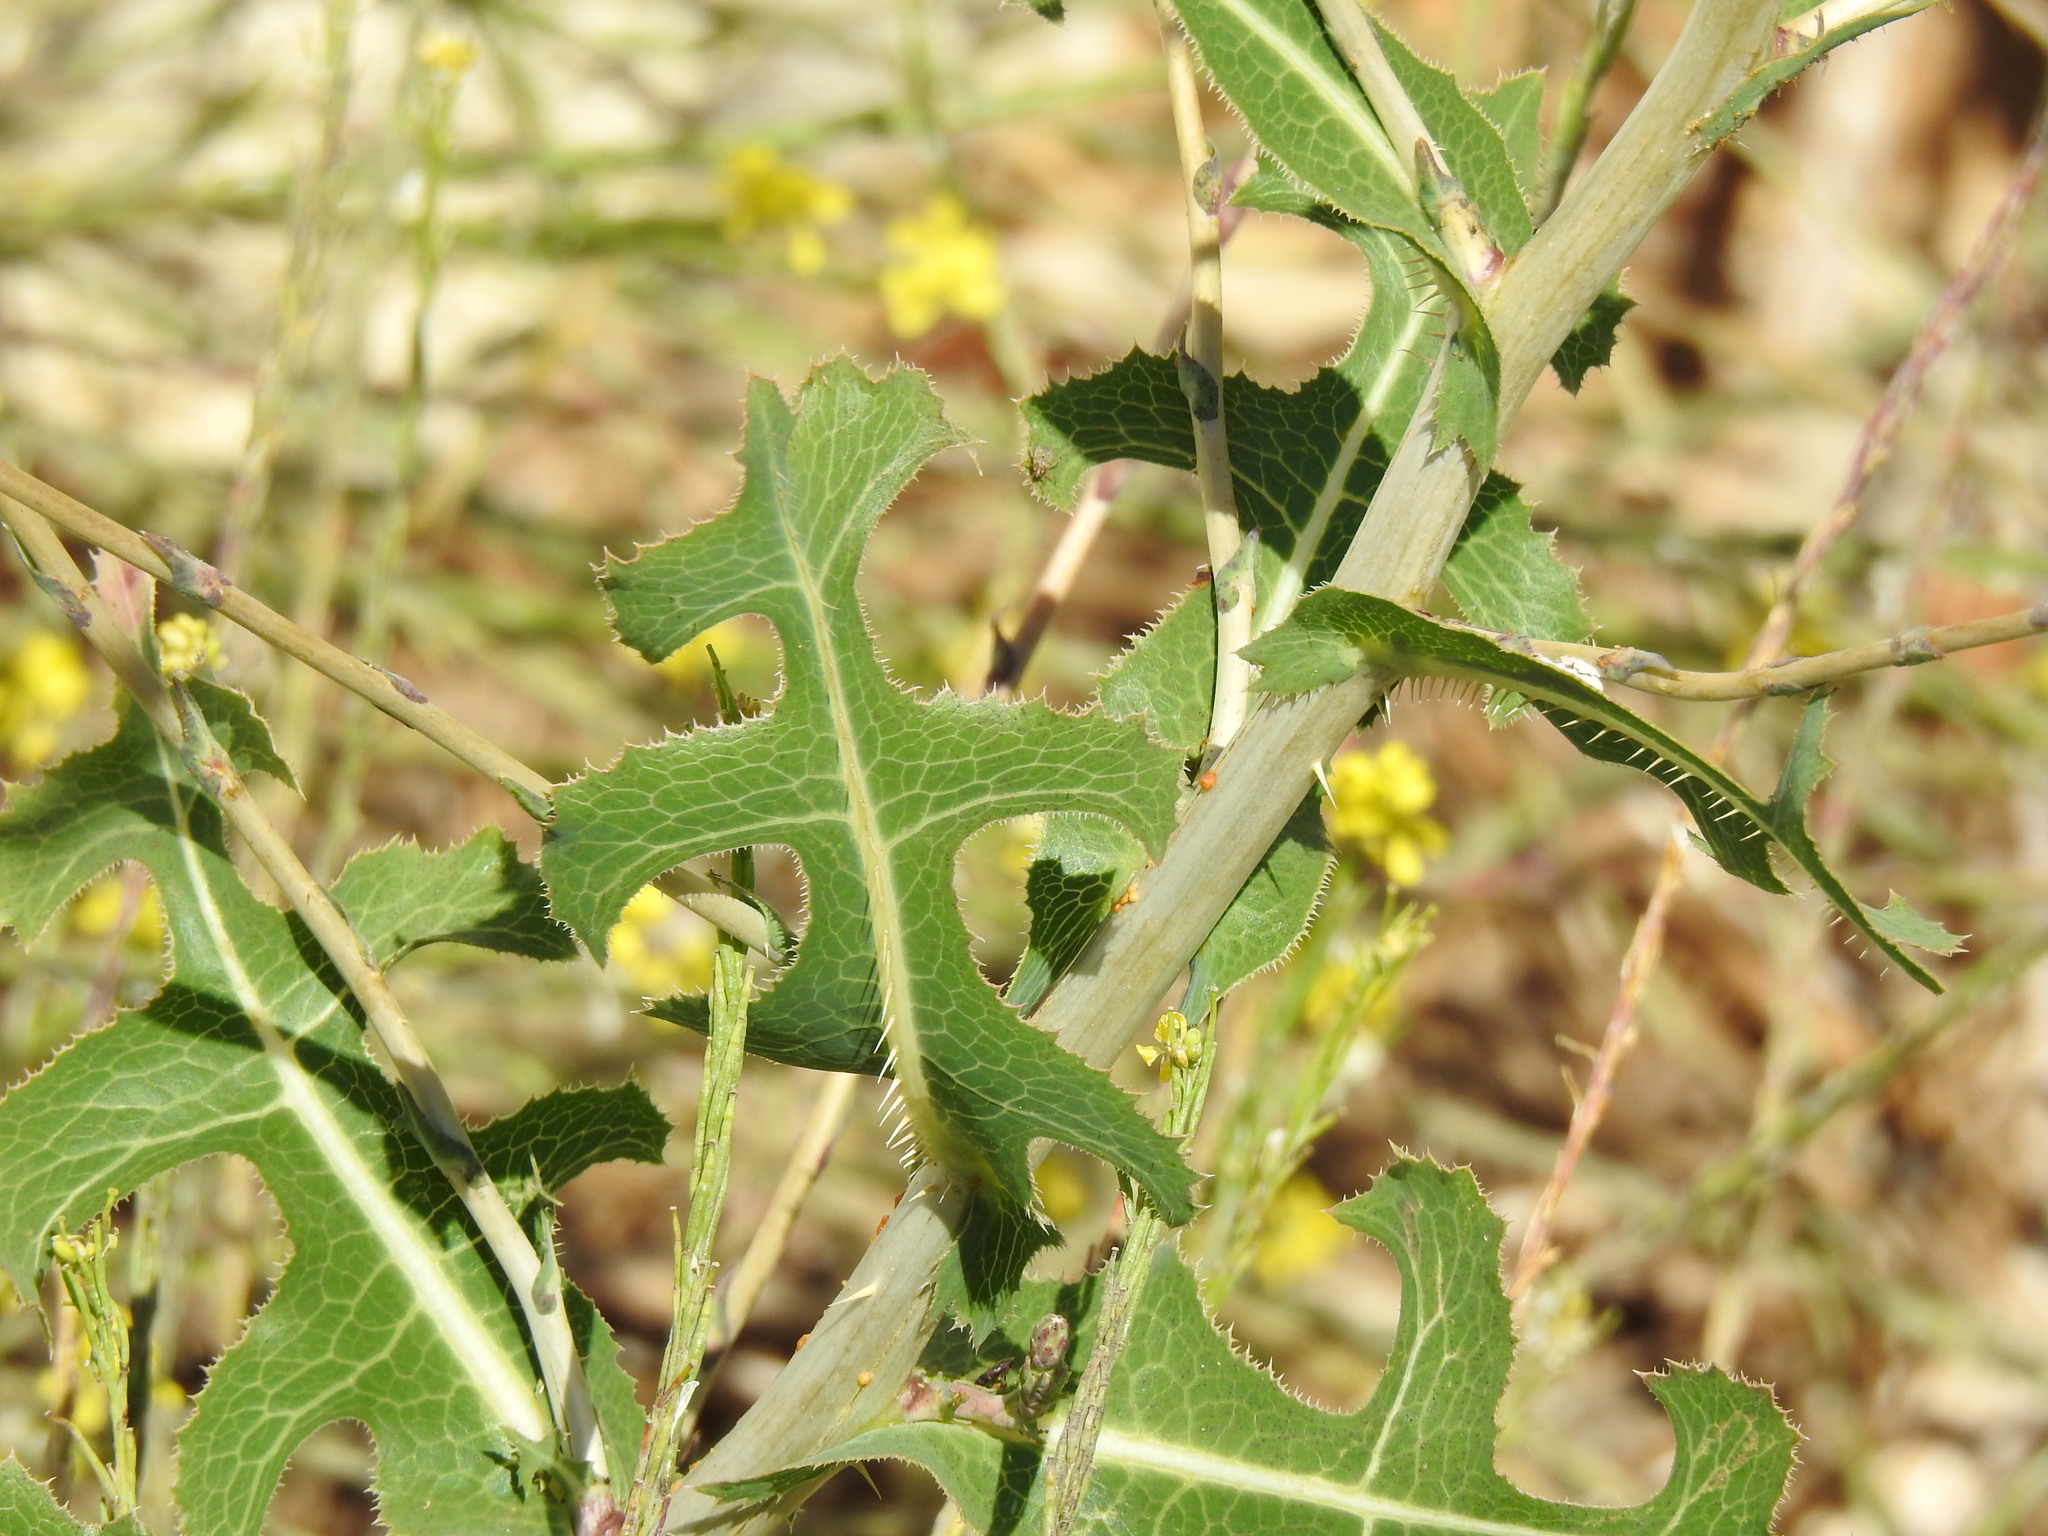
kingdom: Plantae
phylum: Tracheophyta
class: Magnoliopsida
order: Asterales
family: Asteraceae
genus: Lactuca
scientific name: Lactuca serriola
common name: Prickly lettuce
